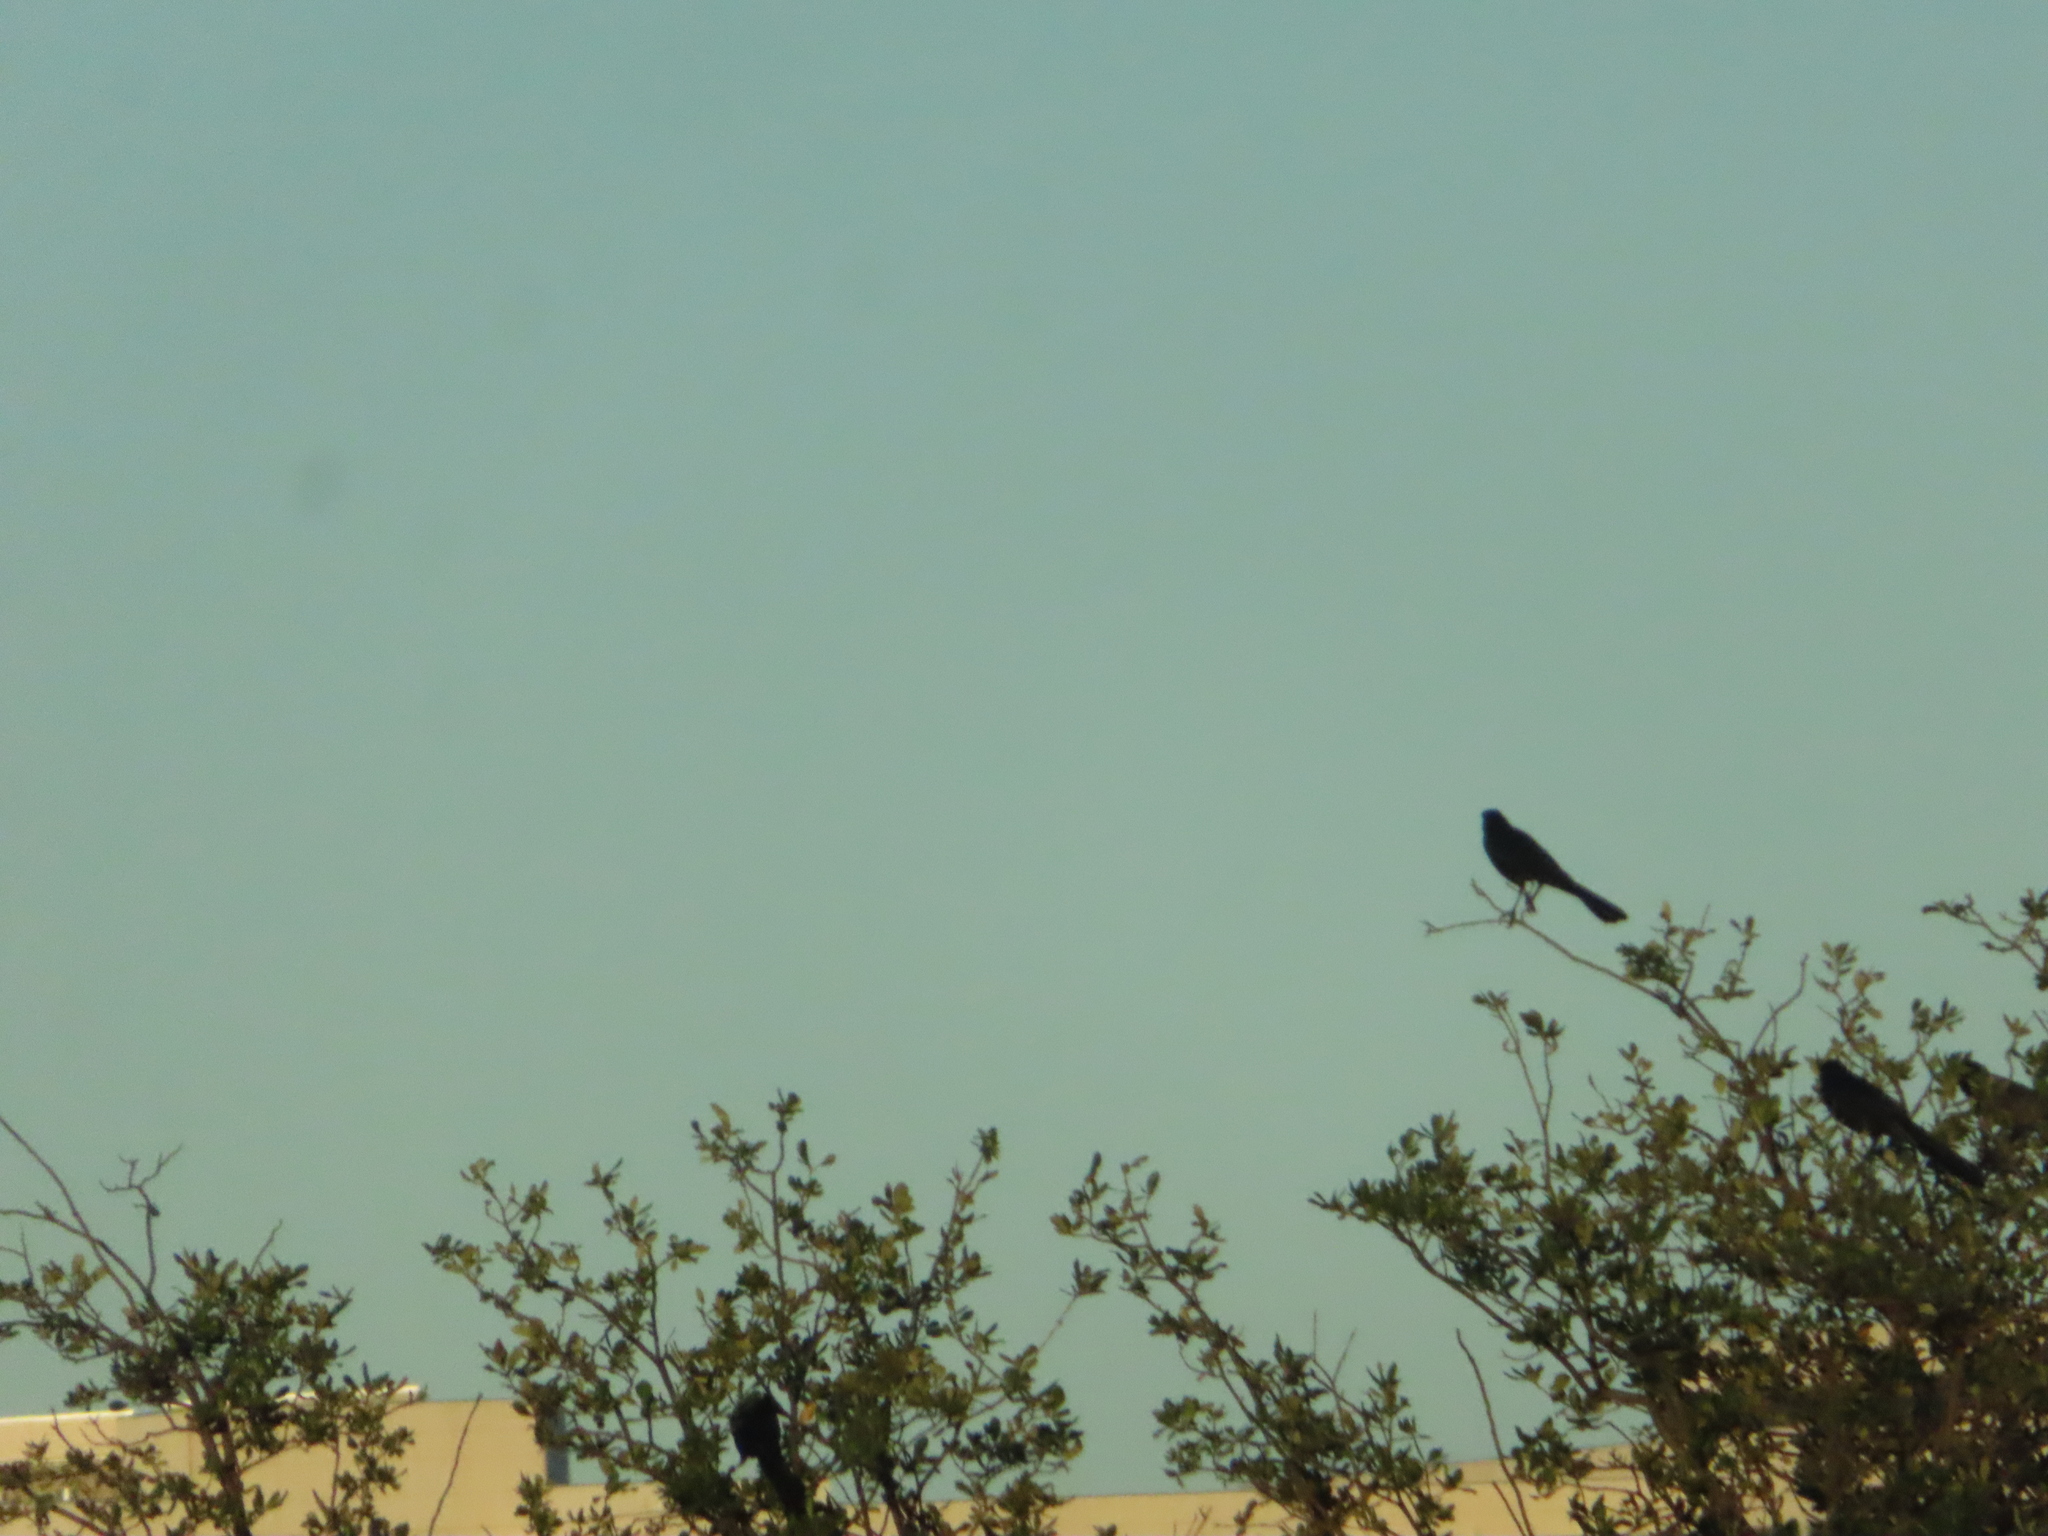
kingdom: Animalia
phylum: Chordata
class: Aves
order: Passeriformes
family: Icteridae
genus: Quiscalus
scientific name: Quiscalus mexicanus
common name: Great-tailed grackle
